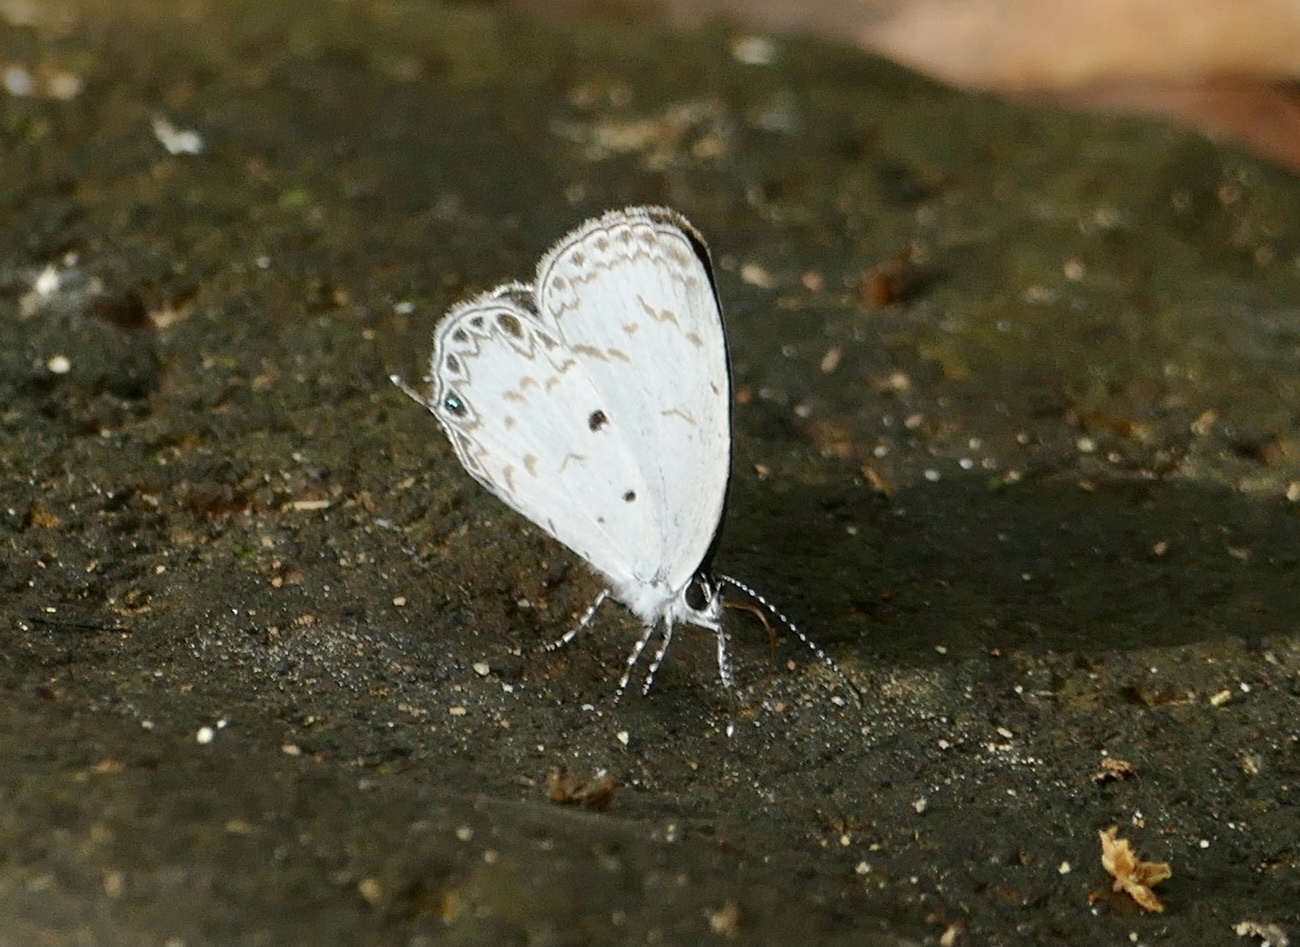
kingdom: Animalia
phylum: Arthropoda
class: Insecta
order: Lepidoptera
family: Lycaenidae
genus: Thermoniphas
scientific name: Thermoniphas micylus
